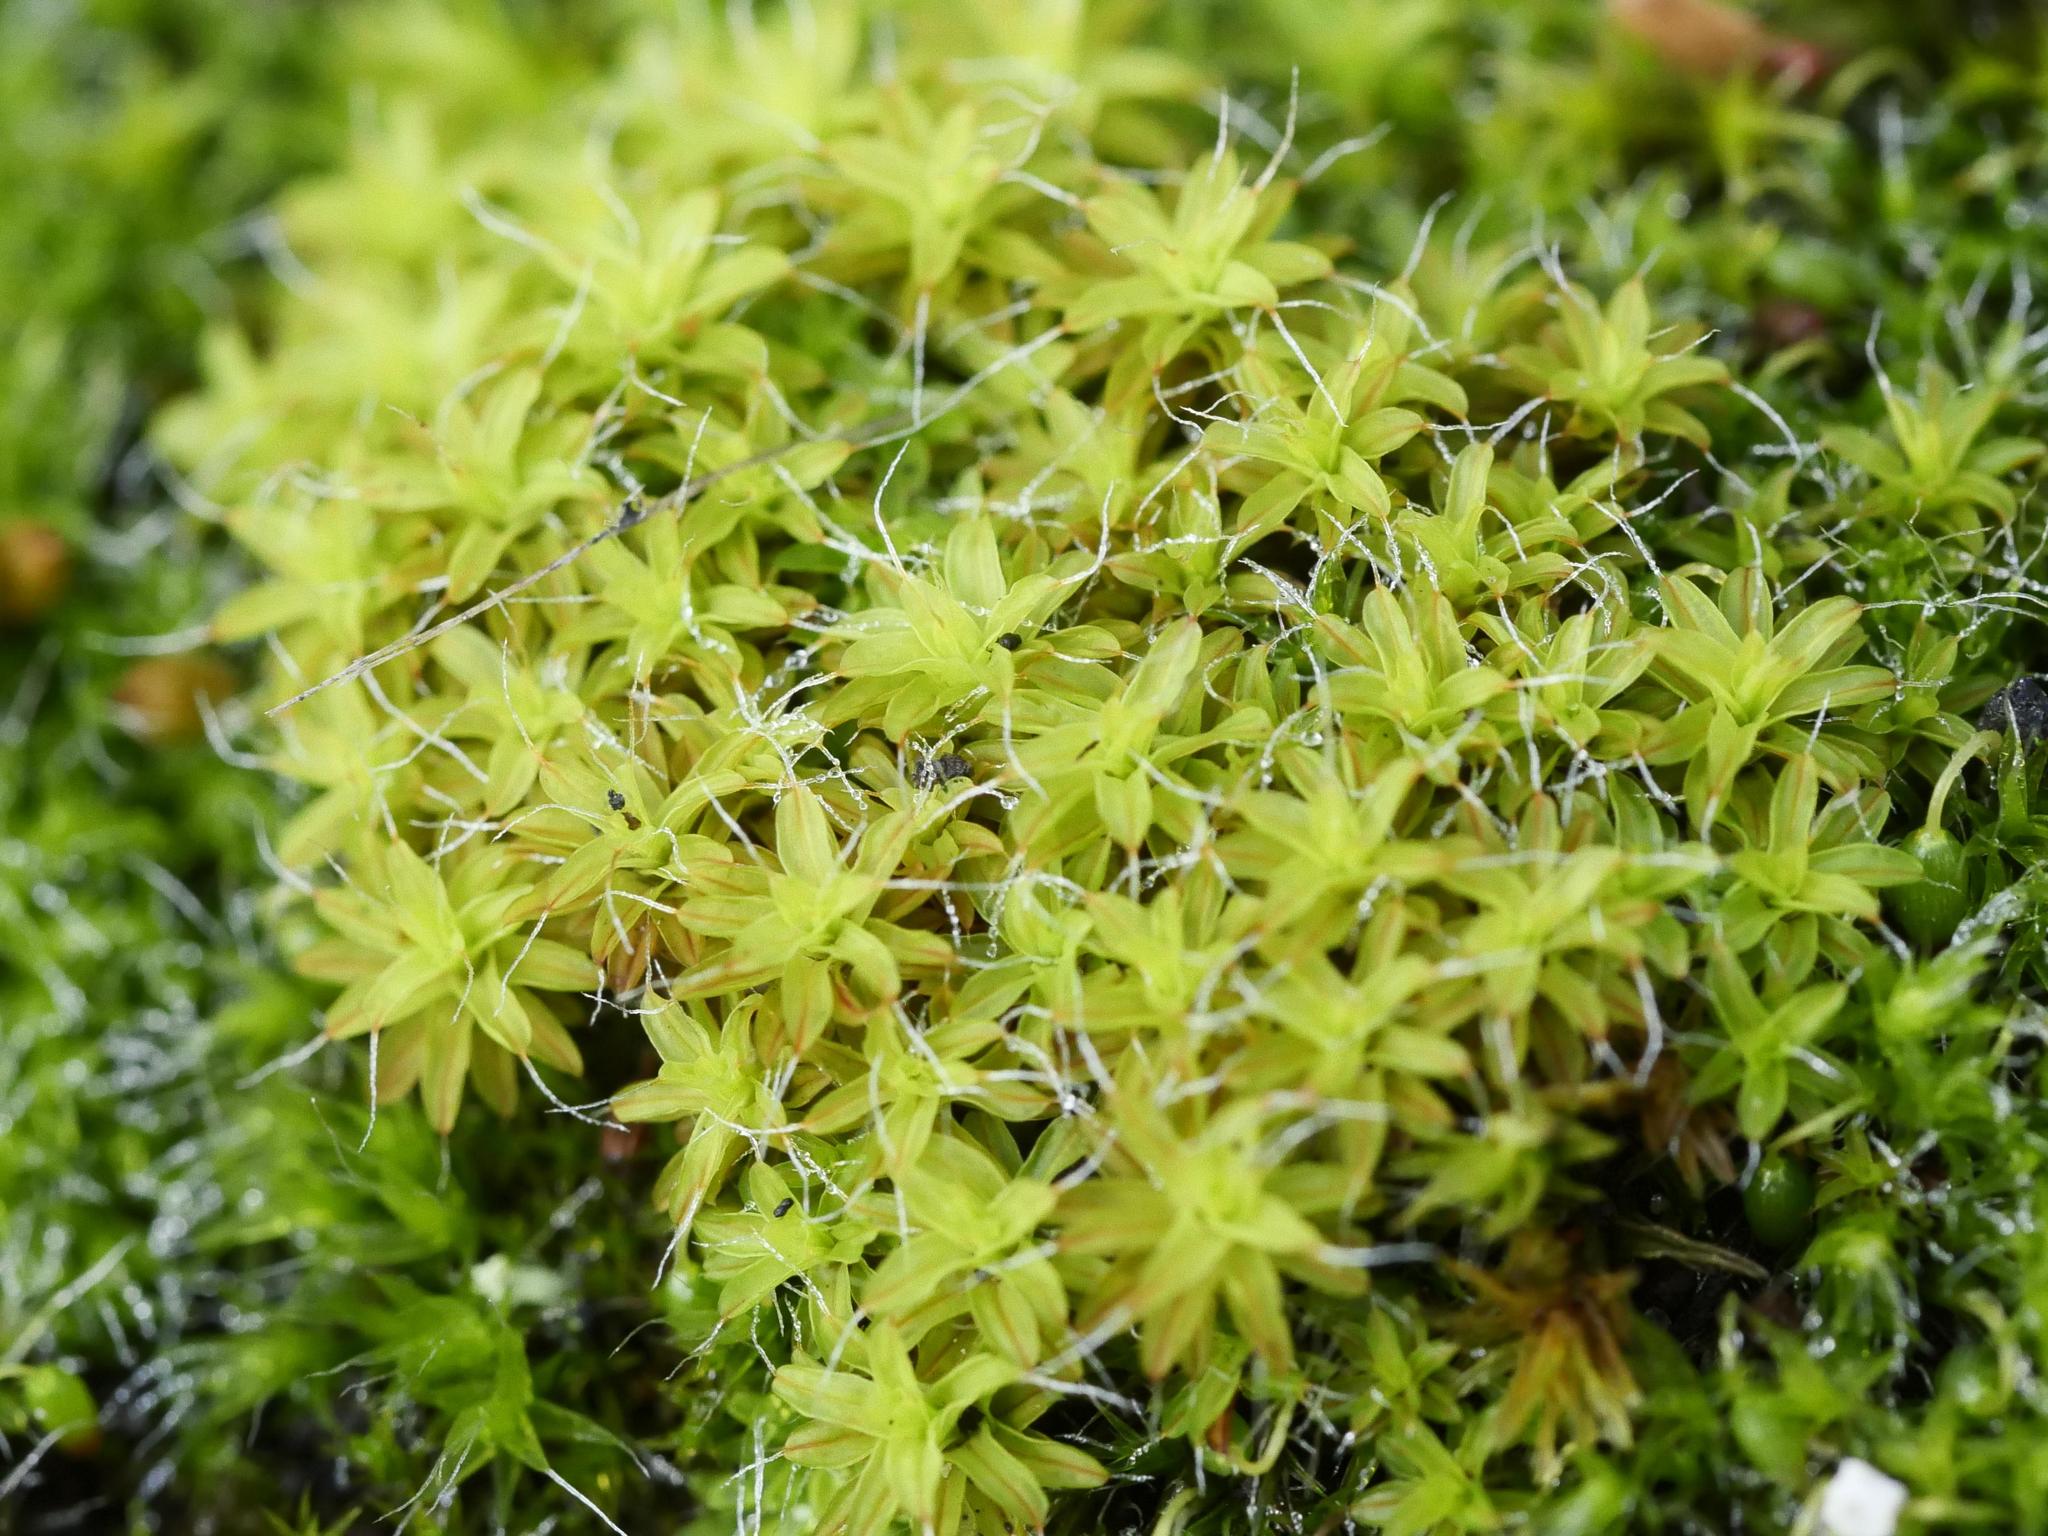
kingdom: Plantae
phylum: Bryophyta
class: Bryopsida
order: Pottiales
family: Pottiaceae
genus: Syntrichia
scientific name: Syntrichia ruralis
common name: Sidewalk screw moss
